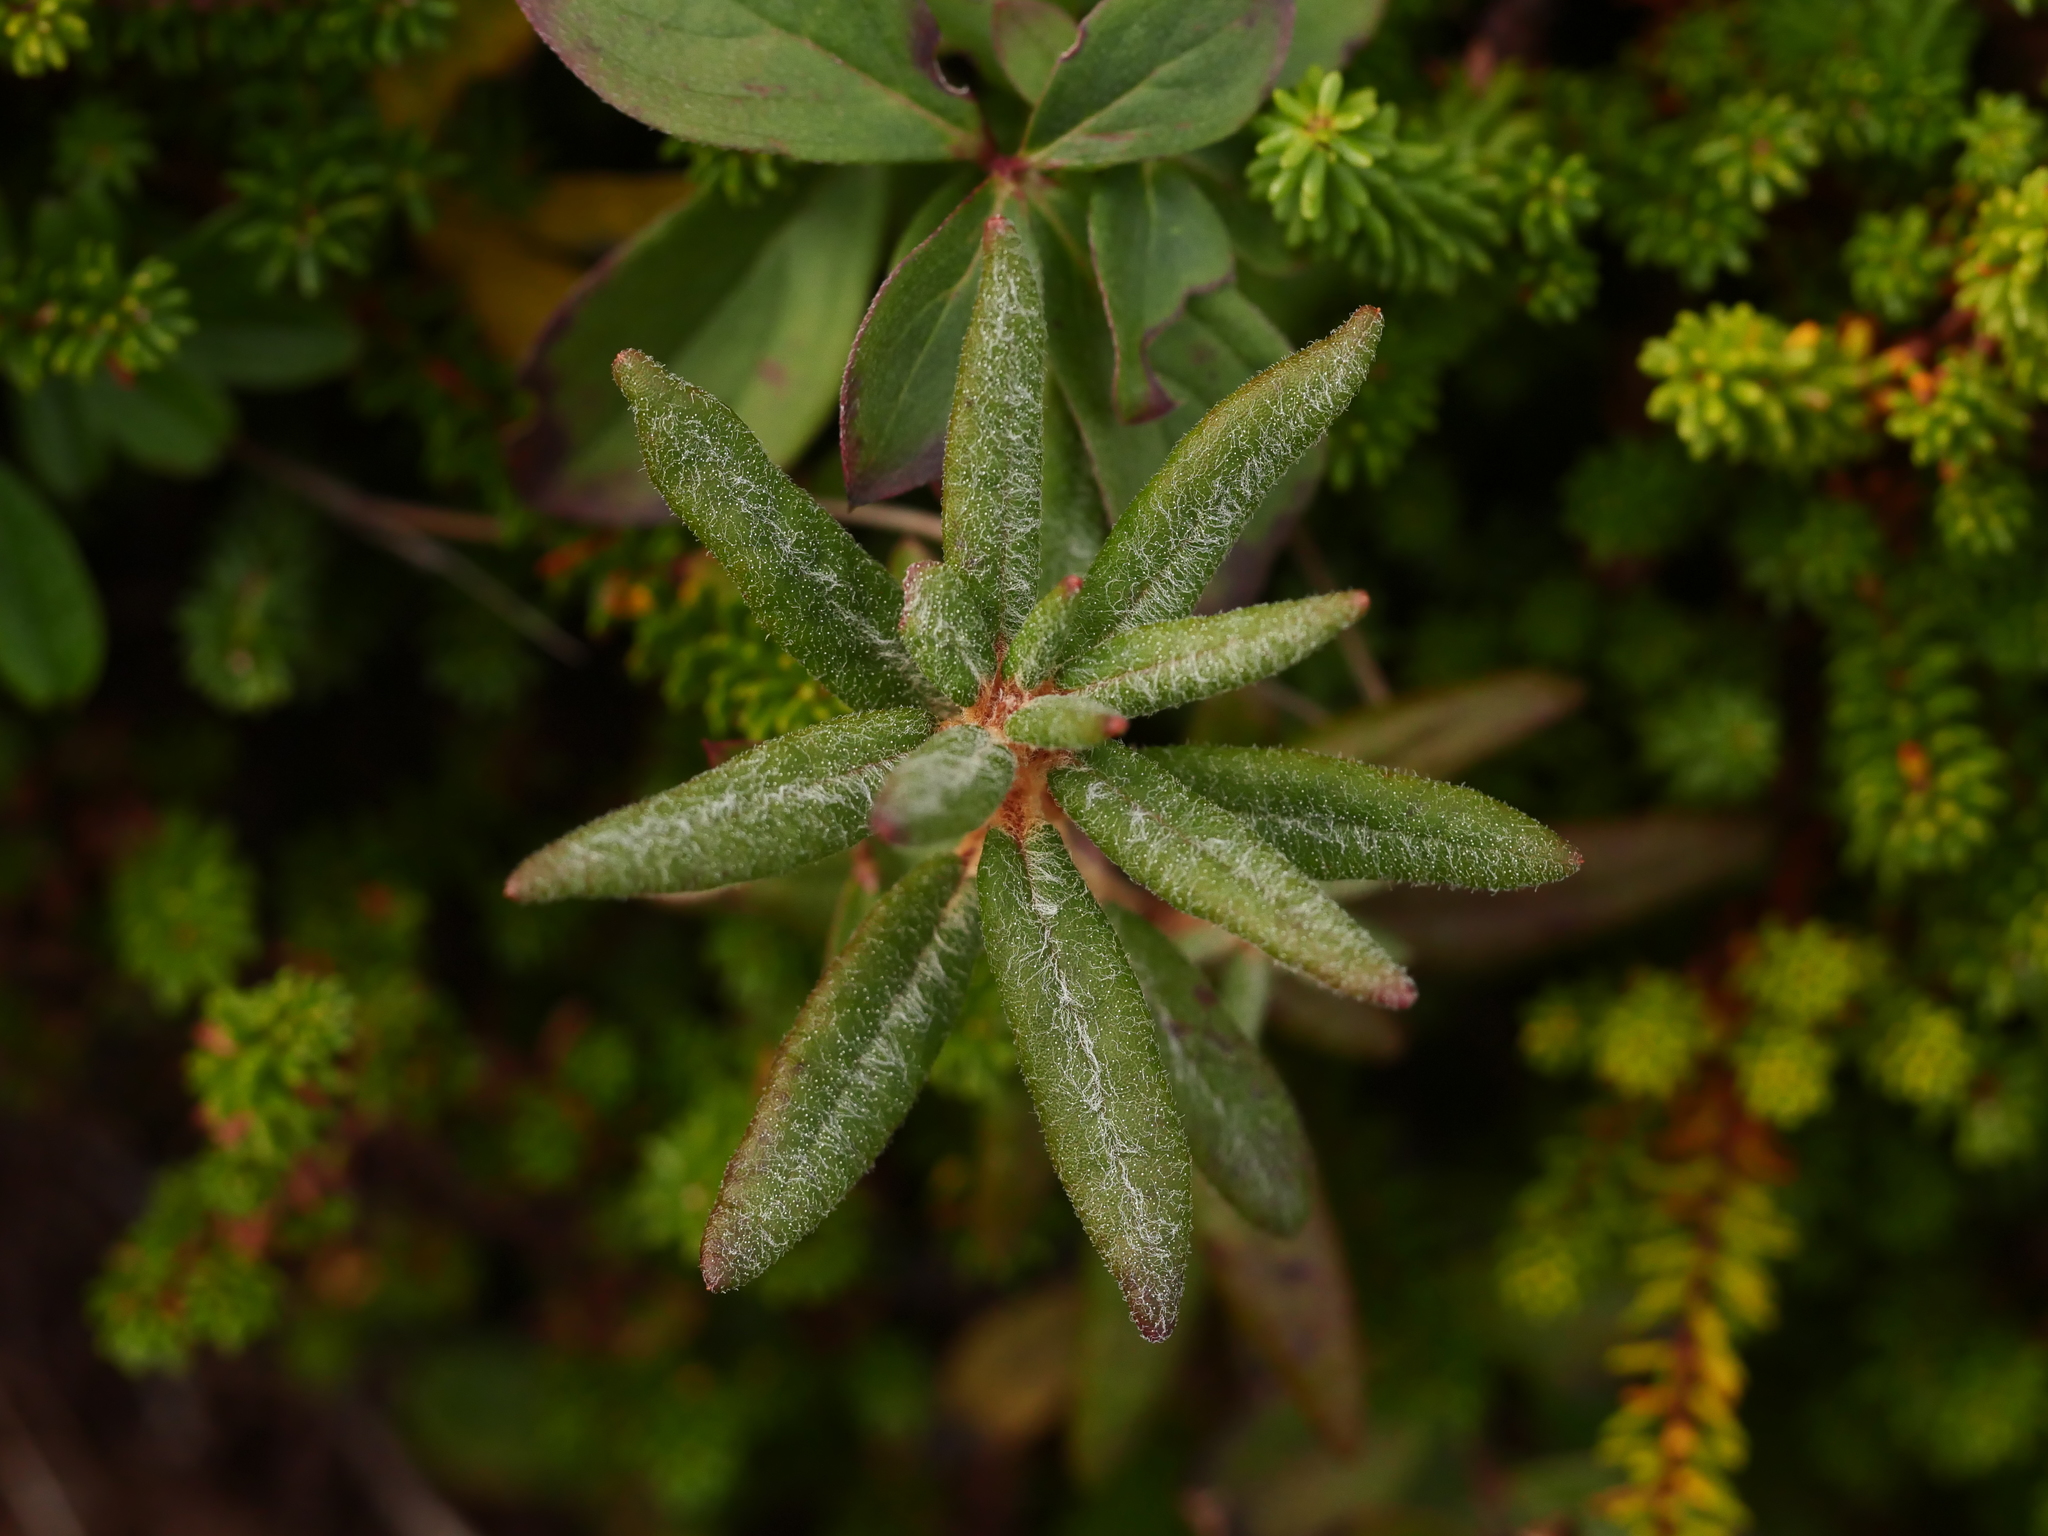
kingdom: Plantae
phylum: Tracheophyta
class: Magnoliopsida
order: Ericales
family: Ericaceae
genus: Rhododendron
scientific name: Rhododendron groenlandicum
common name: Bog labrador tea
